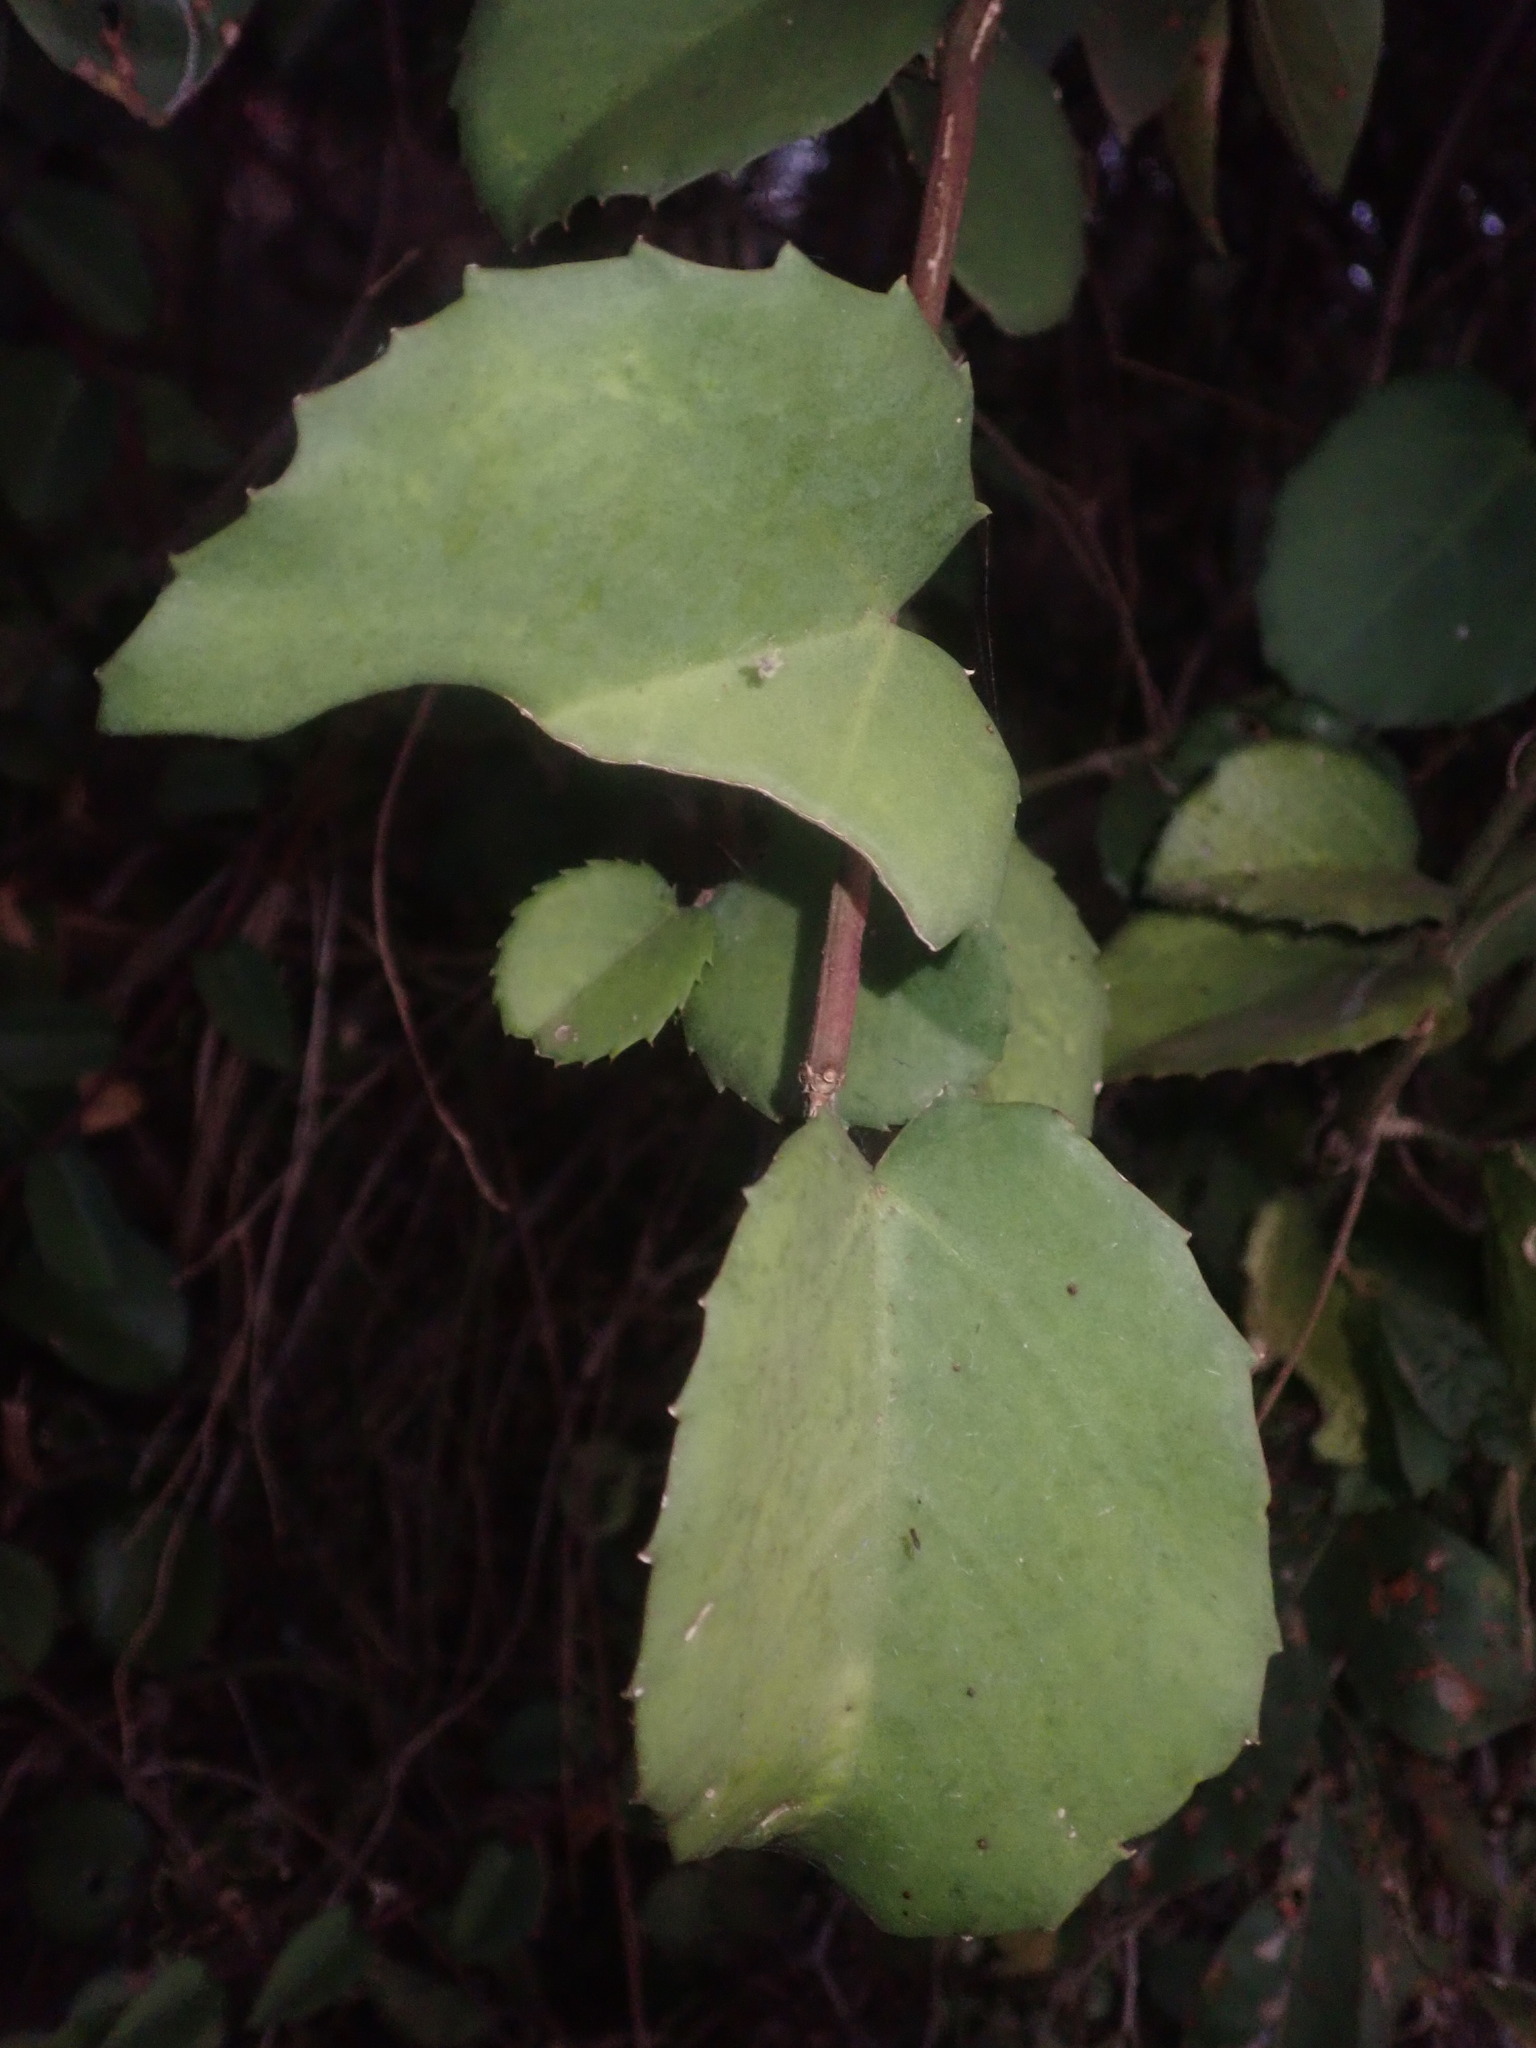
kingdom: Plantae
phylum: Tracheophyta
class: Magnoliopsida
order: Vitales
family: Vitaceae
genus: Cissus
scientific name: Cissus rotundifolia
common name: Arabian wax cissus
